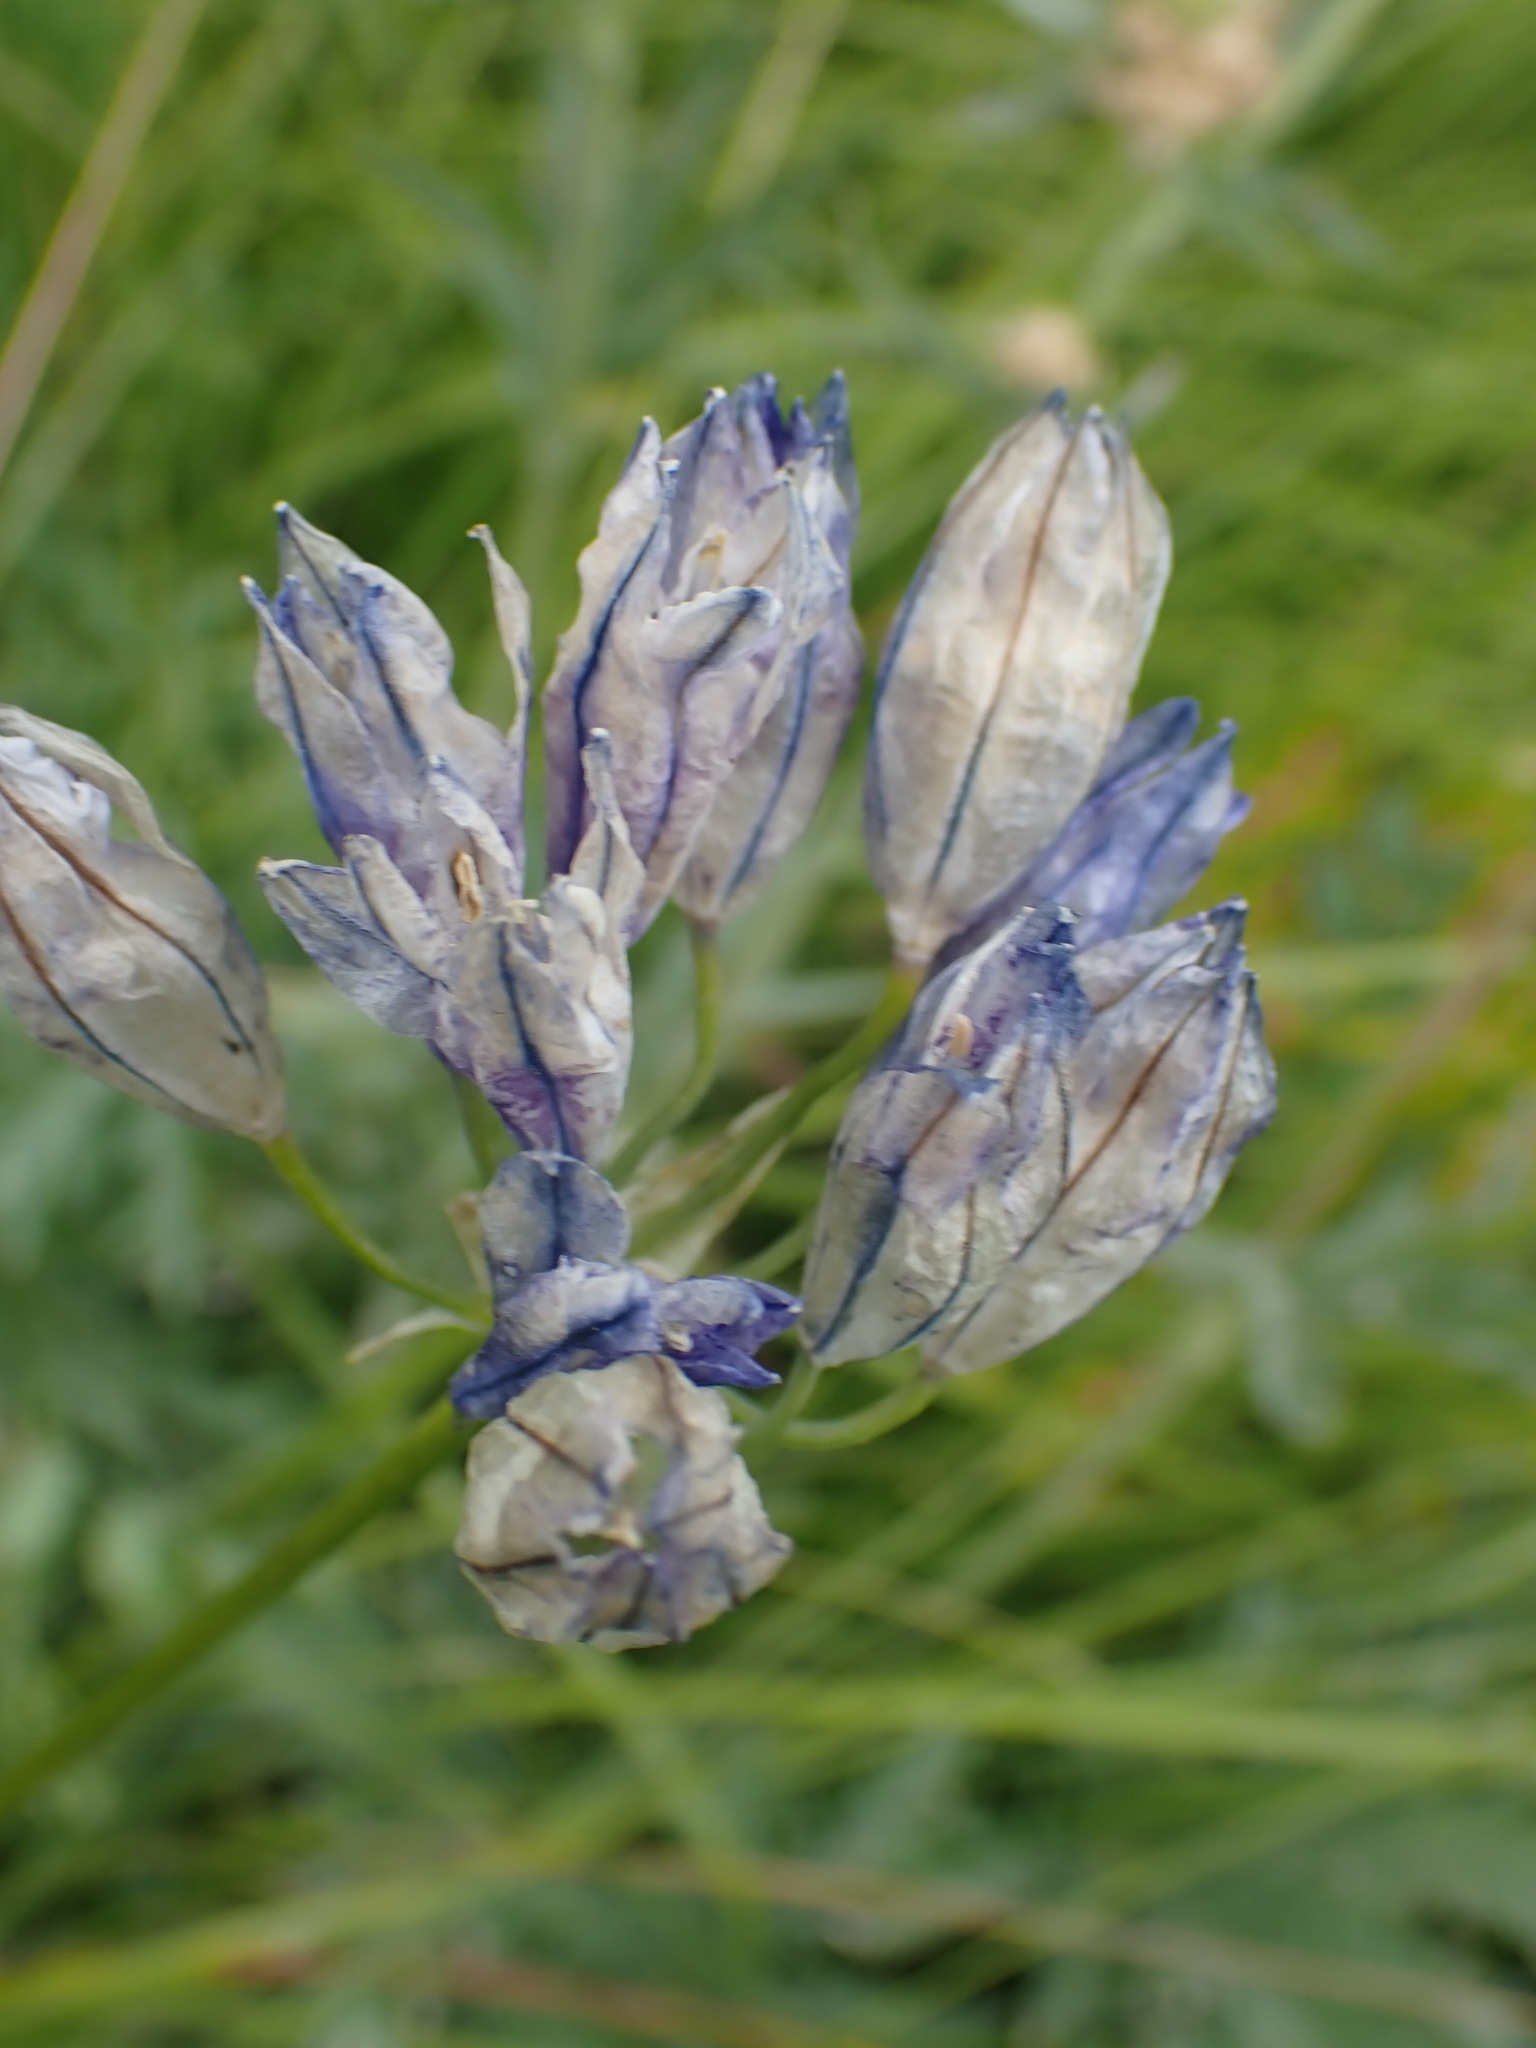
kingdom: Plantae
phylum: Tracheophyta
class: Liliopsida
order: Asparagales
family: Asparagaceae
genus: Triteleia
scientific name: Triteleia grandiflora
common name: Wild hyacinth
